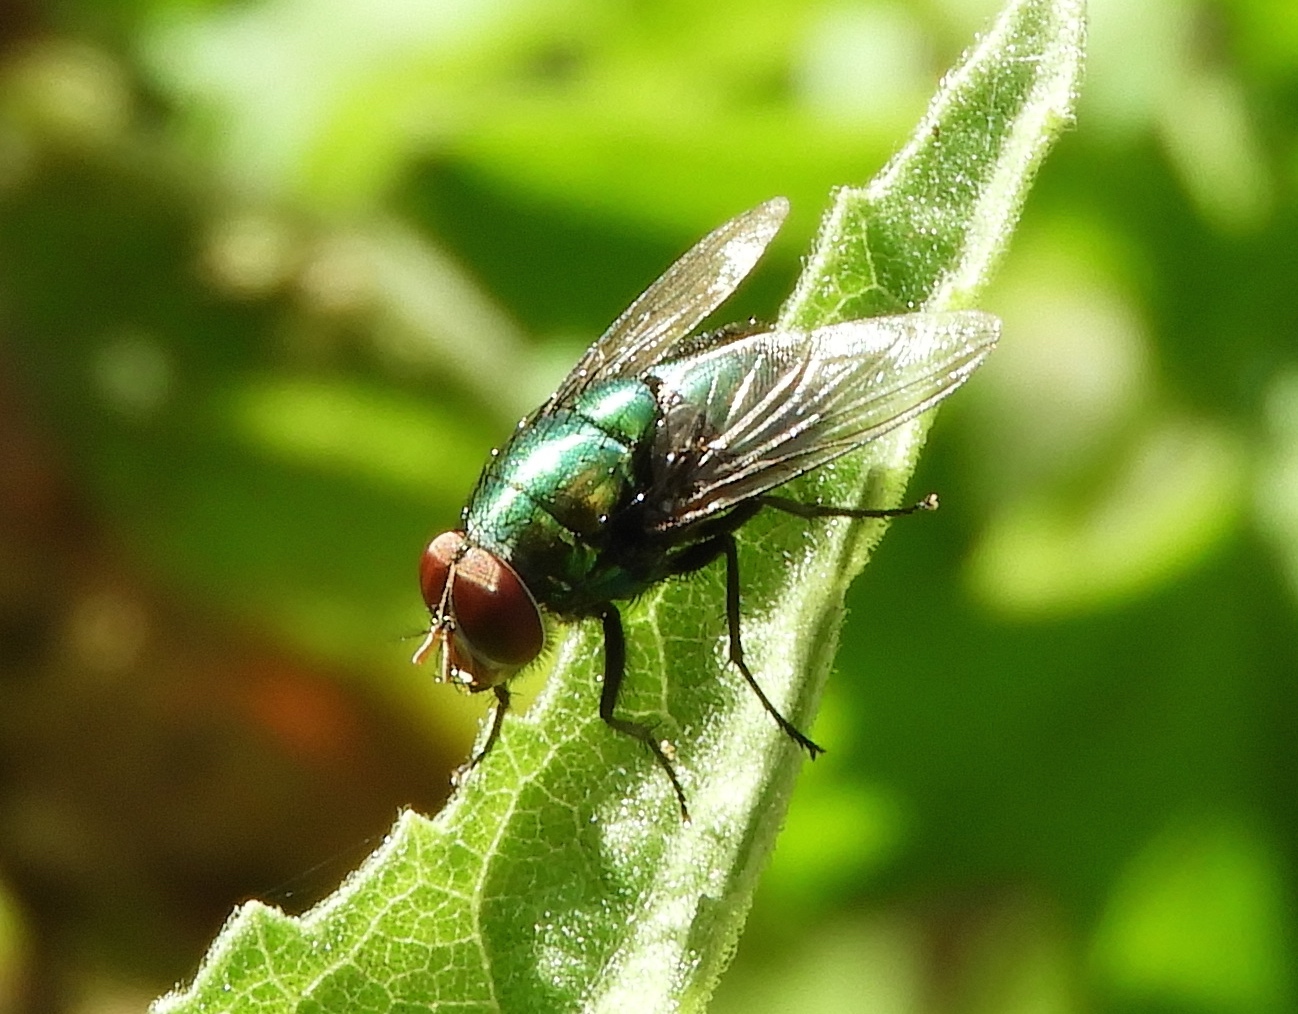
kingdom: Animalia
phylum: Arthropoda
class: Insecta
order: Diptera
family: Calliphoridae
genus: Chrysomya
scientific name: Chrysomya megacephala
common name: Blow fly
